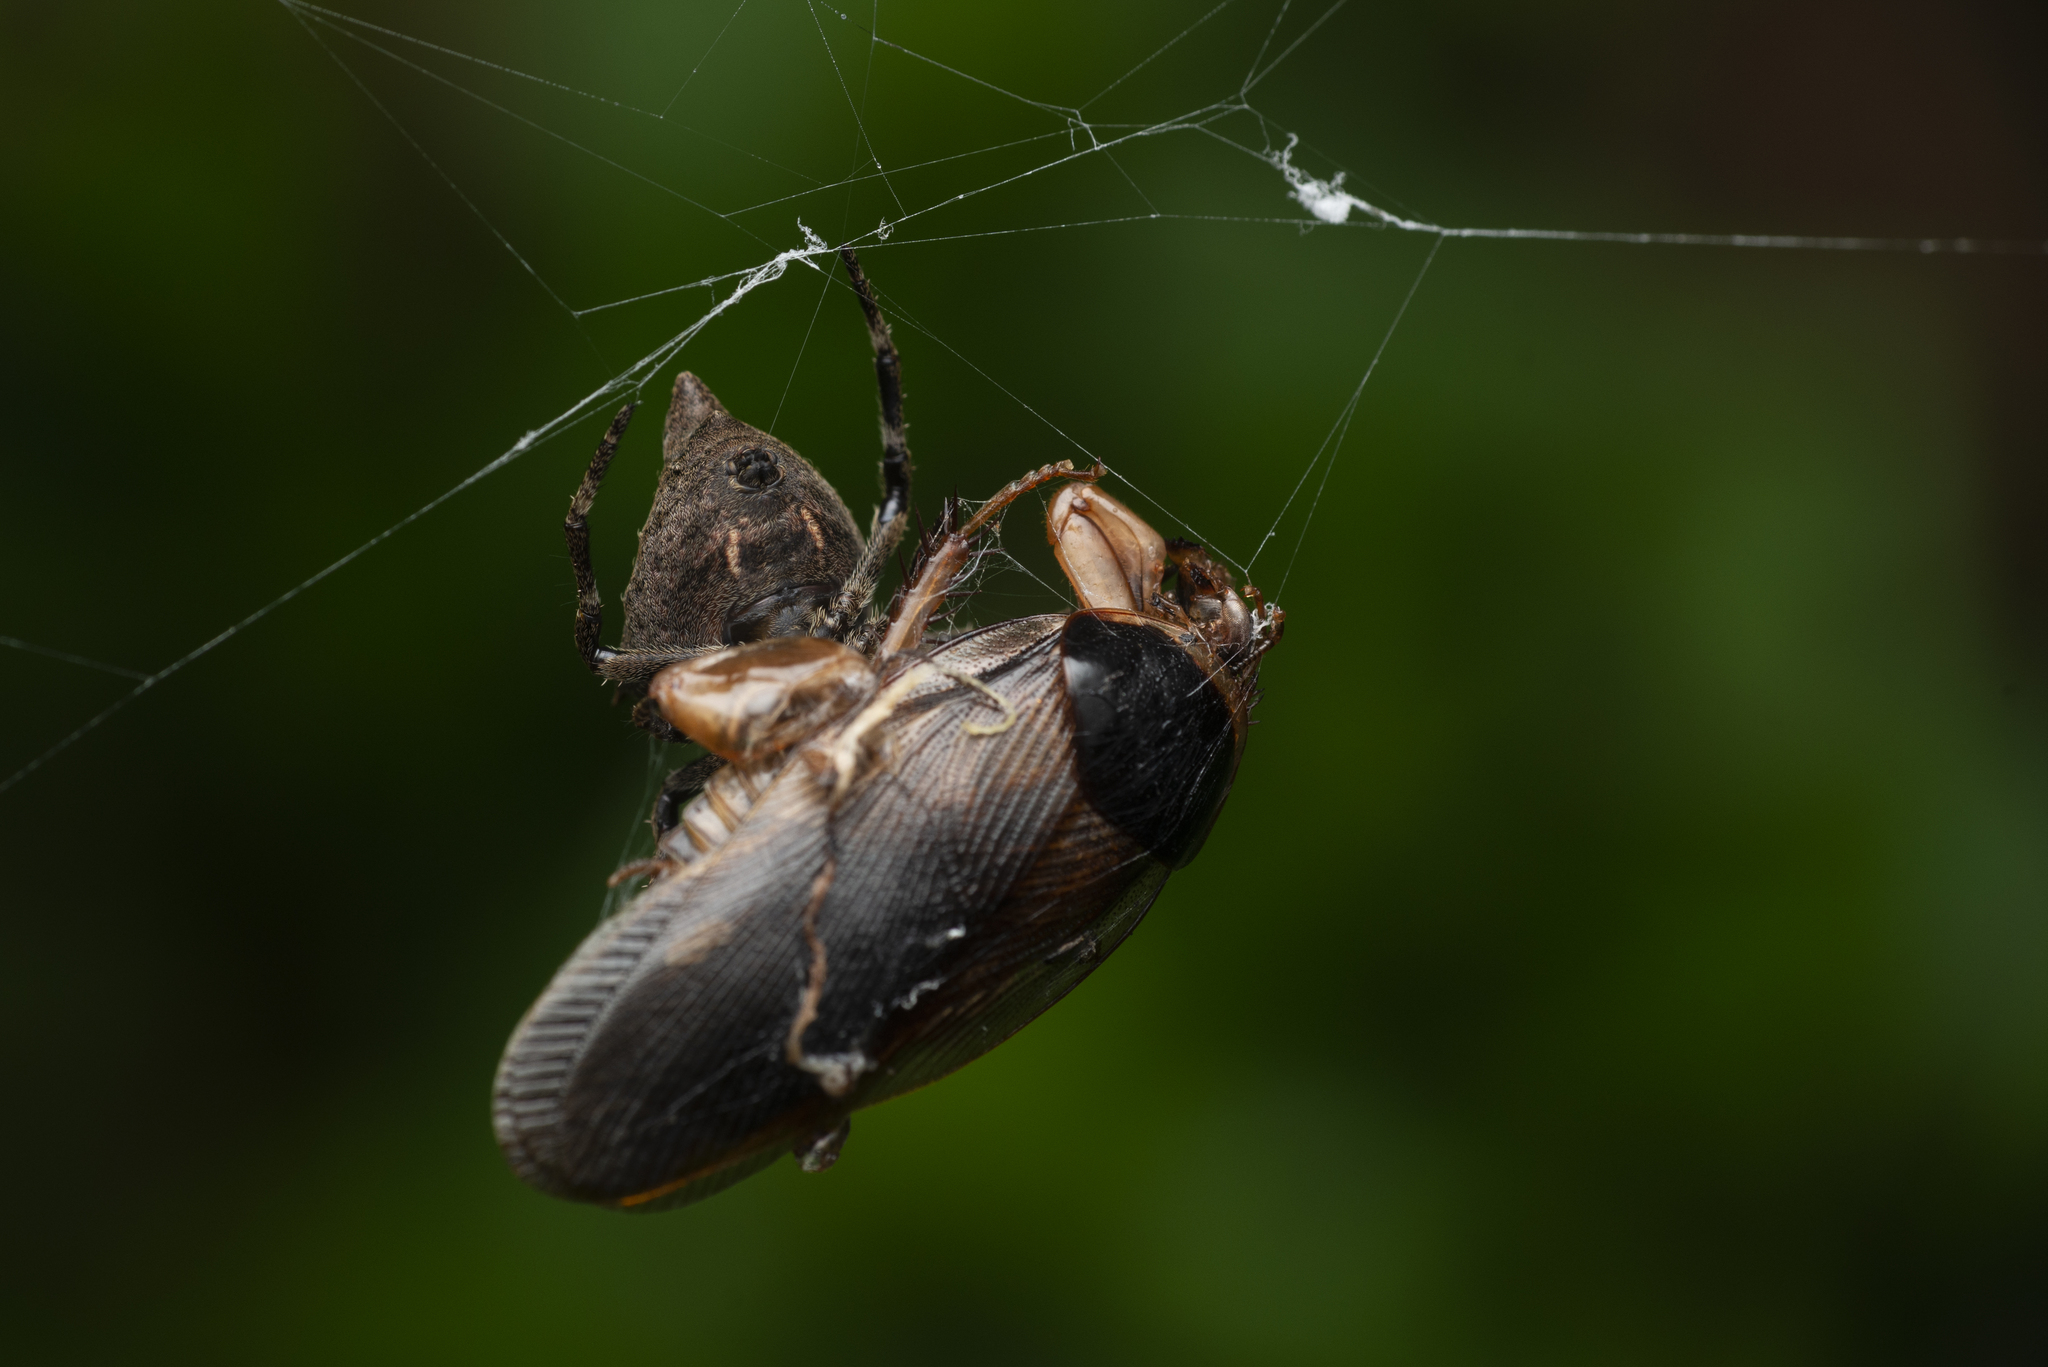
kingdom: Animalia
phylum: Arthropoda
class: Arachnida
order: Araneae
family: Araneidae
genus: Parawixia
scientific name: Parawixia dehaani
